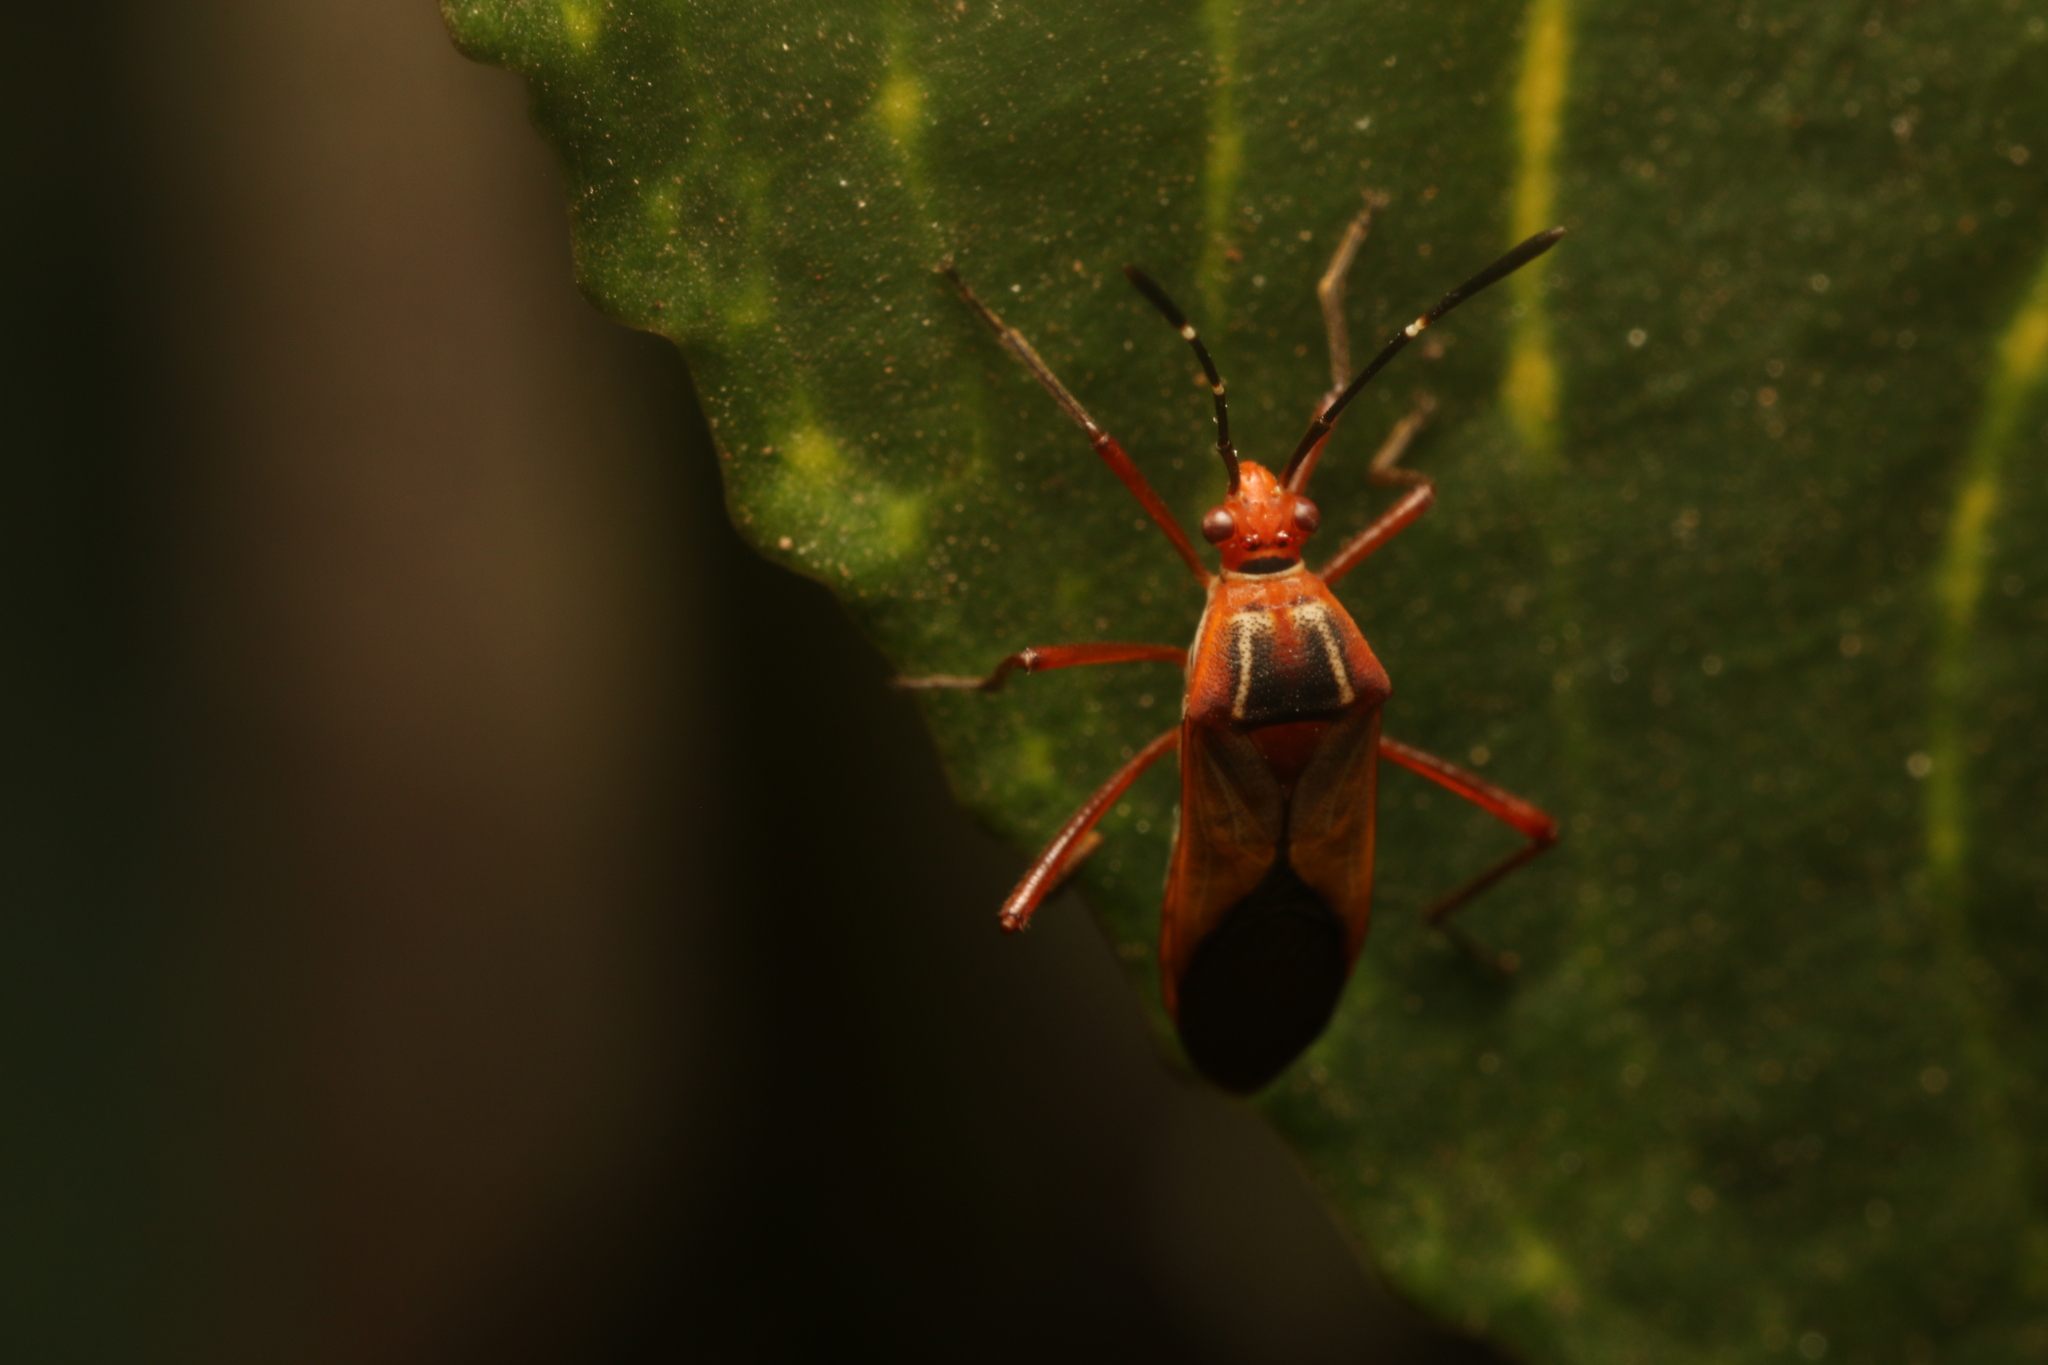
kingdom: Animalia
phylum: Arthropoda
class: Insecta
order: Hemiptera
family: Coreidae
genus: Hypselonotus
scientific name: Hypselonotus interruptus
